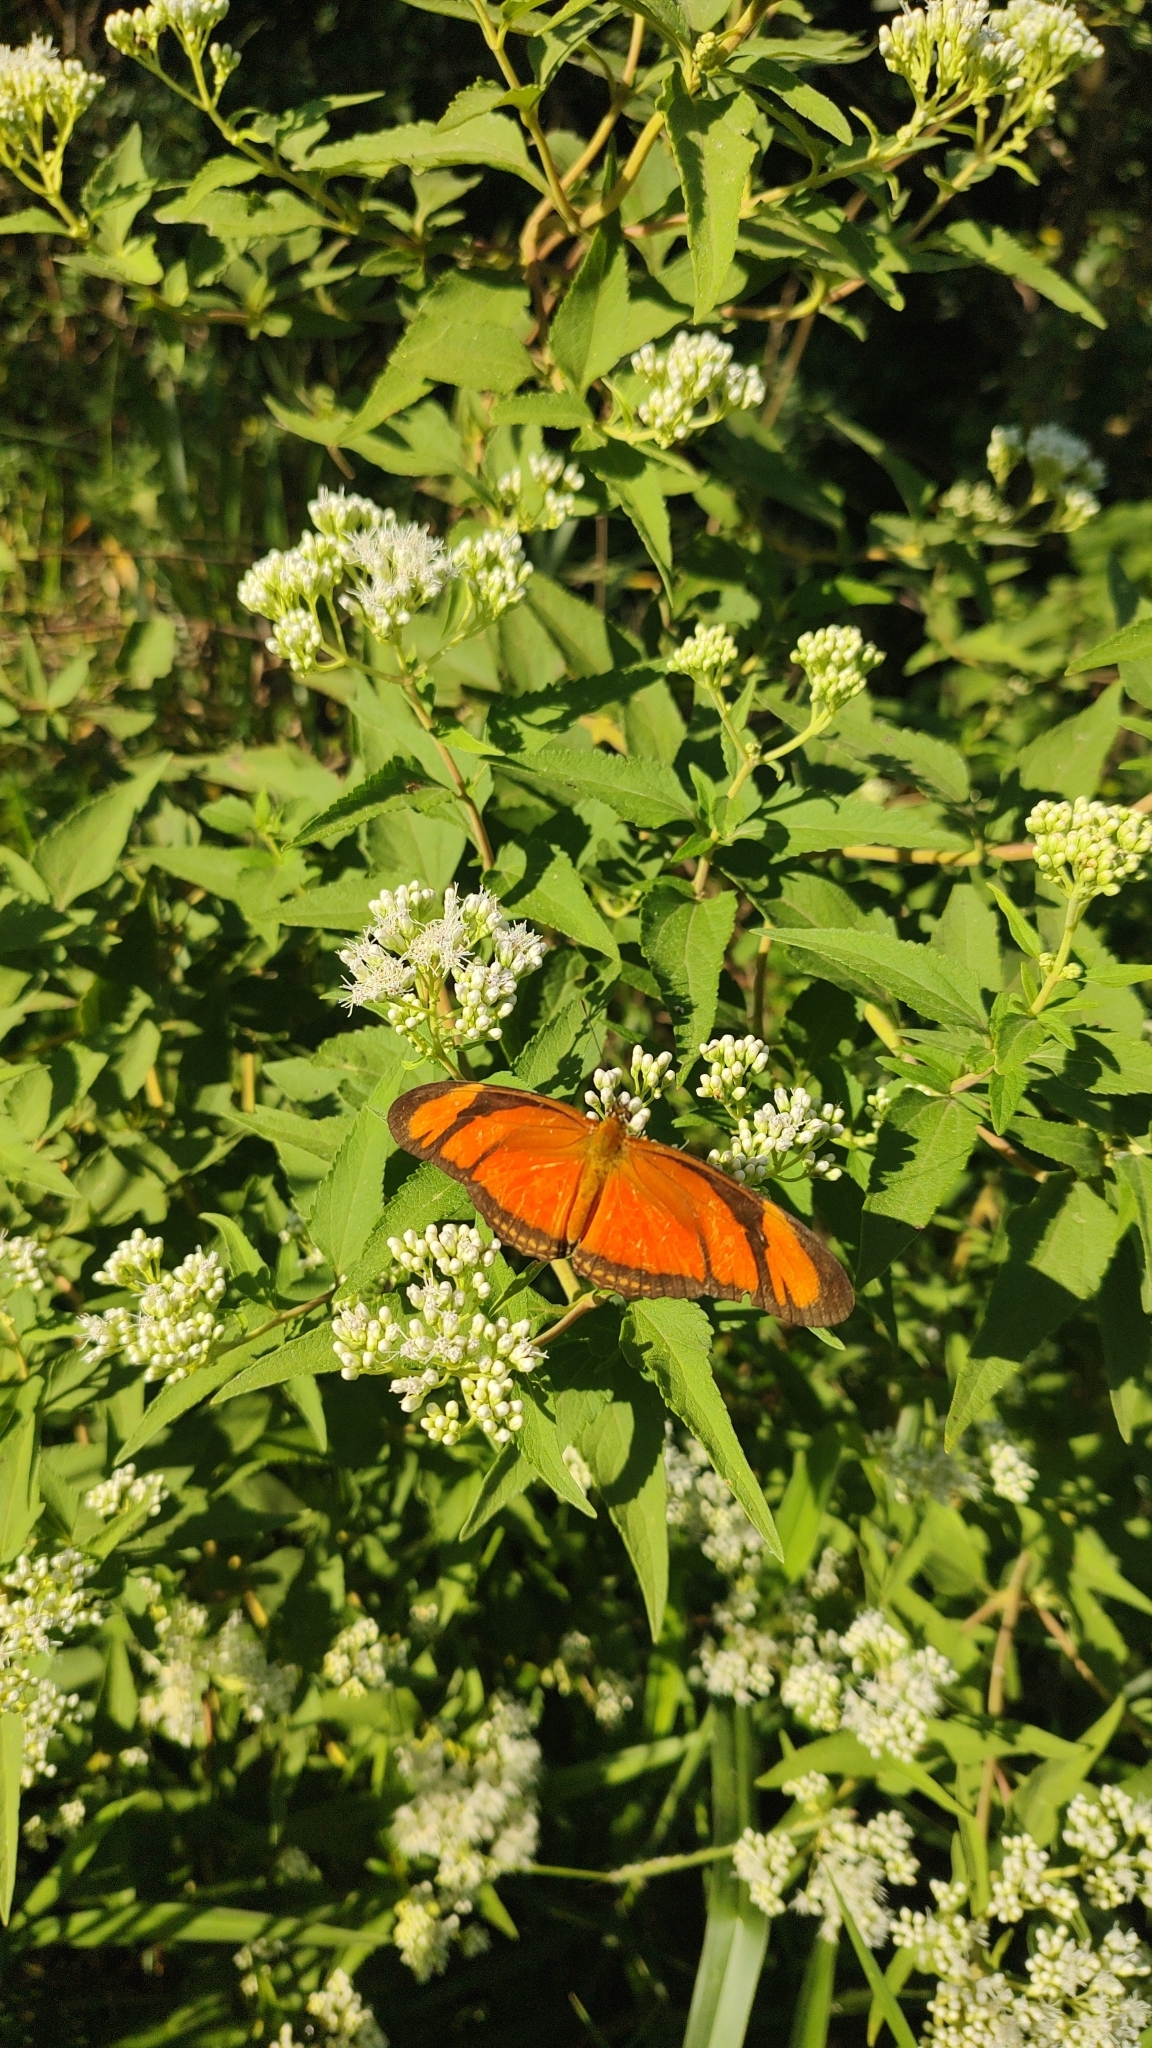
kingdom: Animalia
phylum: Arthropoda
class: Insecta
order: Lepidoptera
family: Nymphalidae
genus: Dryas
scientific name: Dryas iulia
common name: Flambeau
